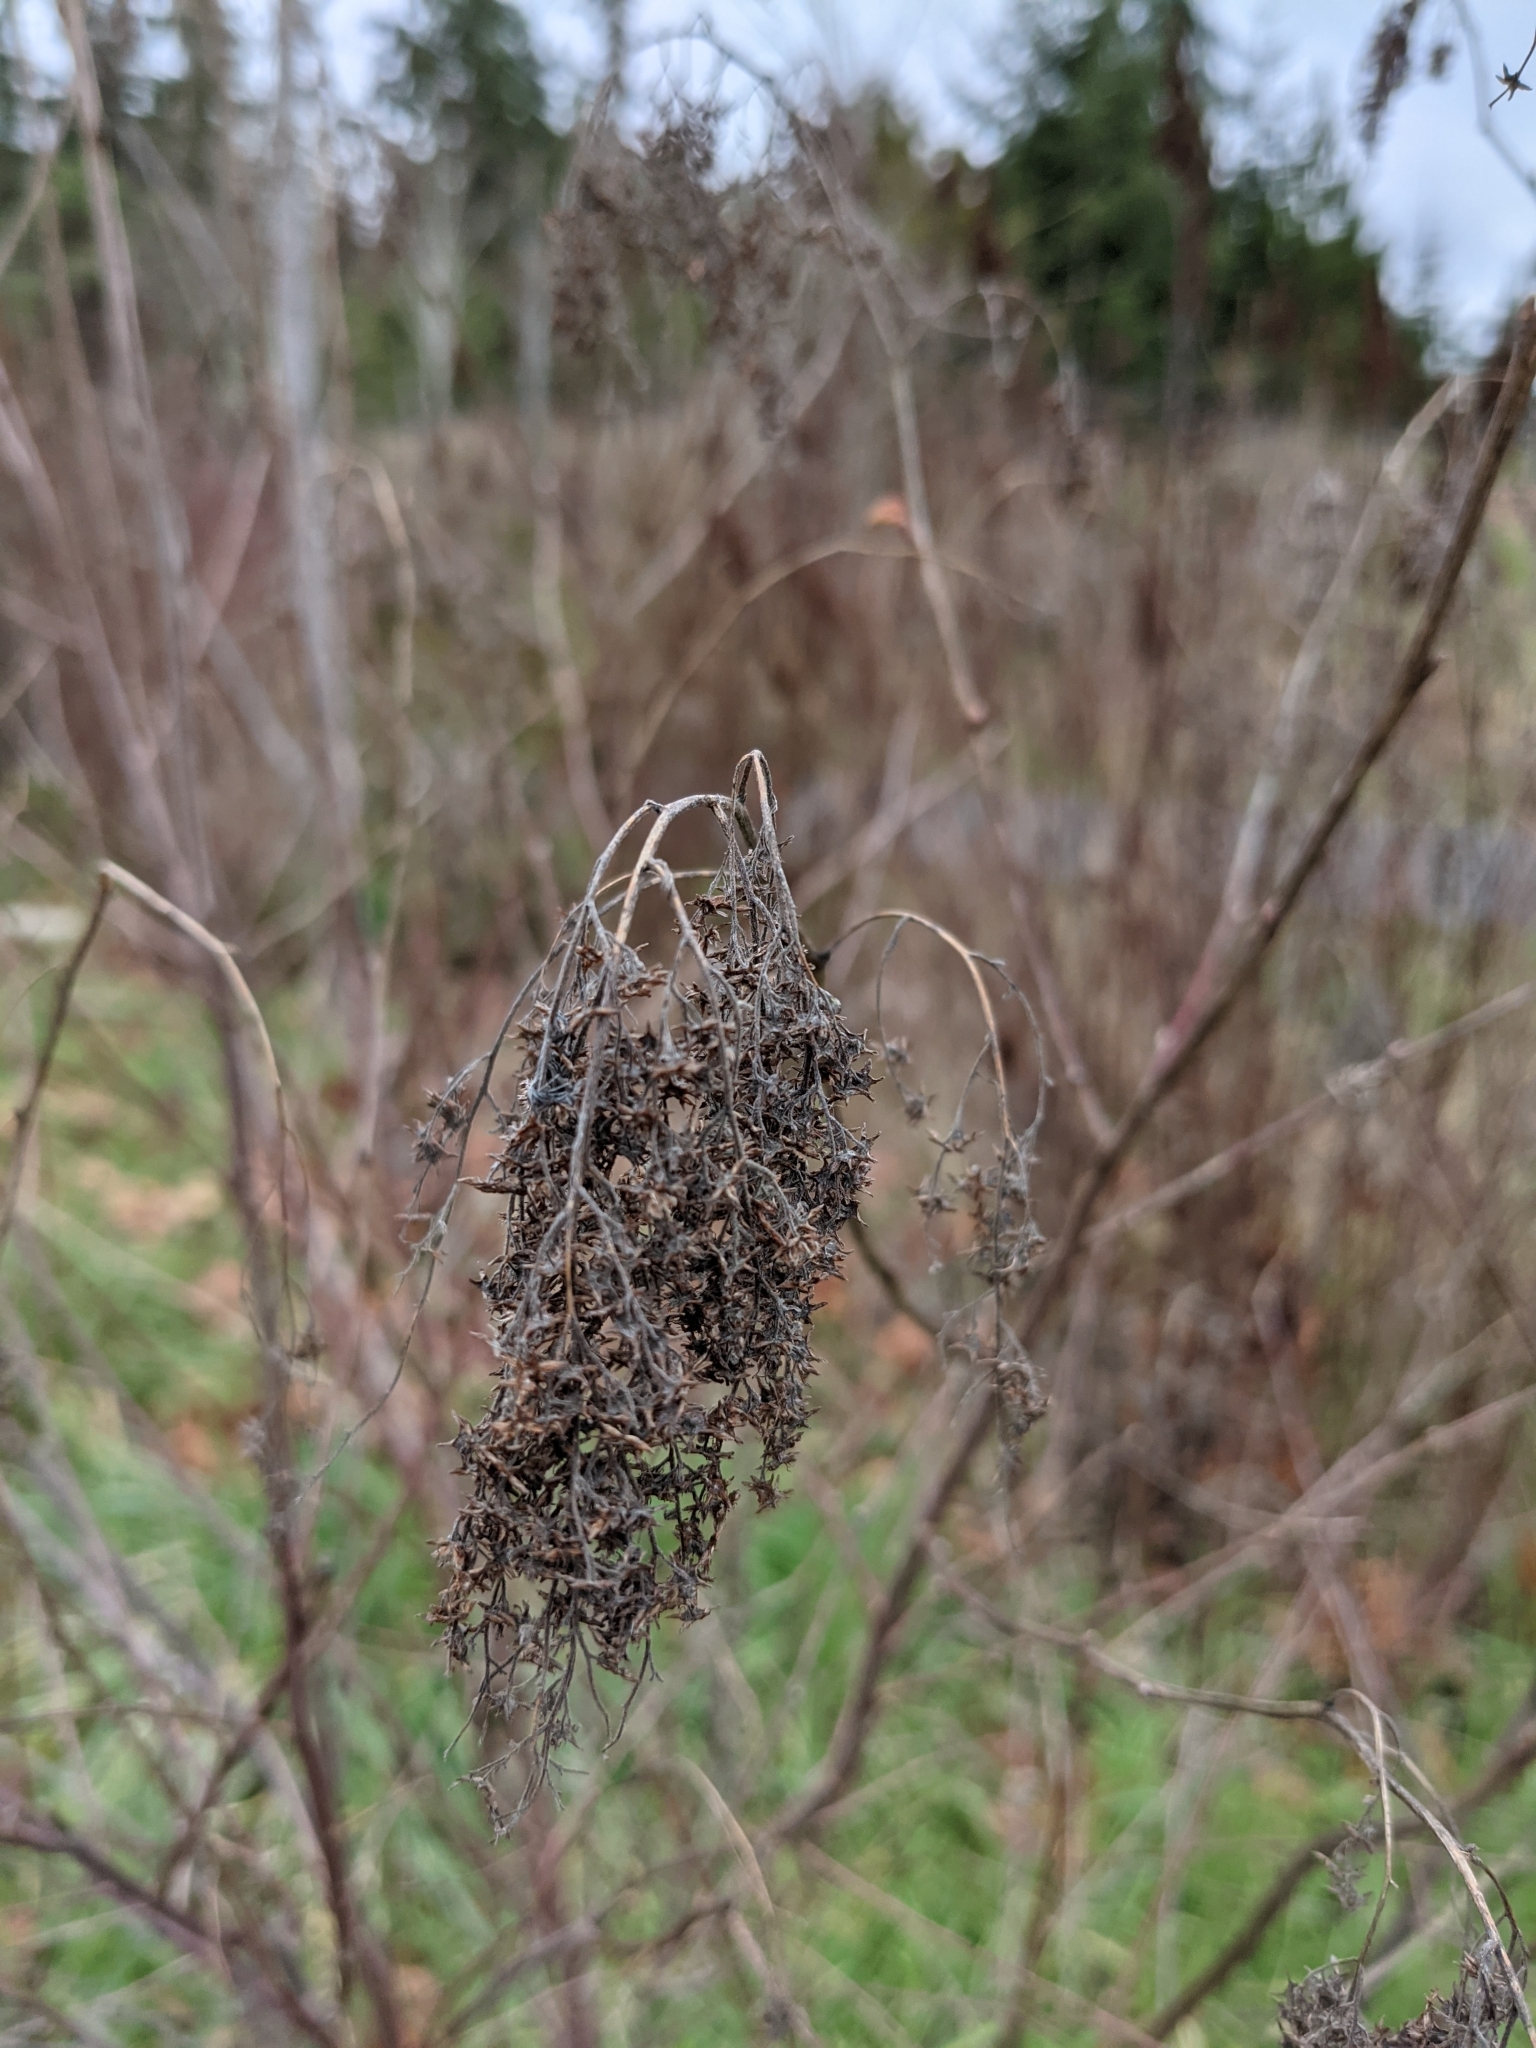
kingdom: Plantae
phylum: Tracheophyta
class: Magnoliopsida
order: Rosales
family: Rosaceae
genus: Spiraea
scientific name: Spiraea douglasii
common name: Steeplebush
